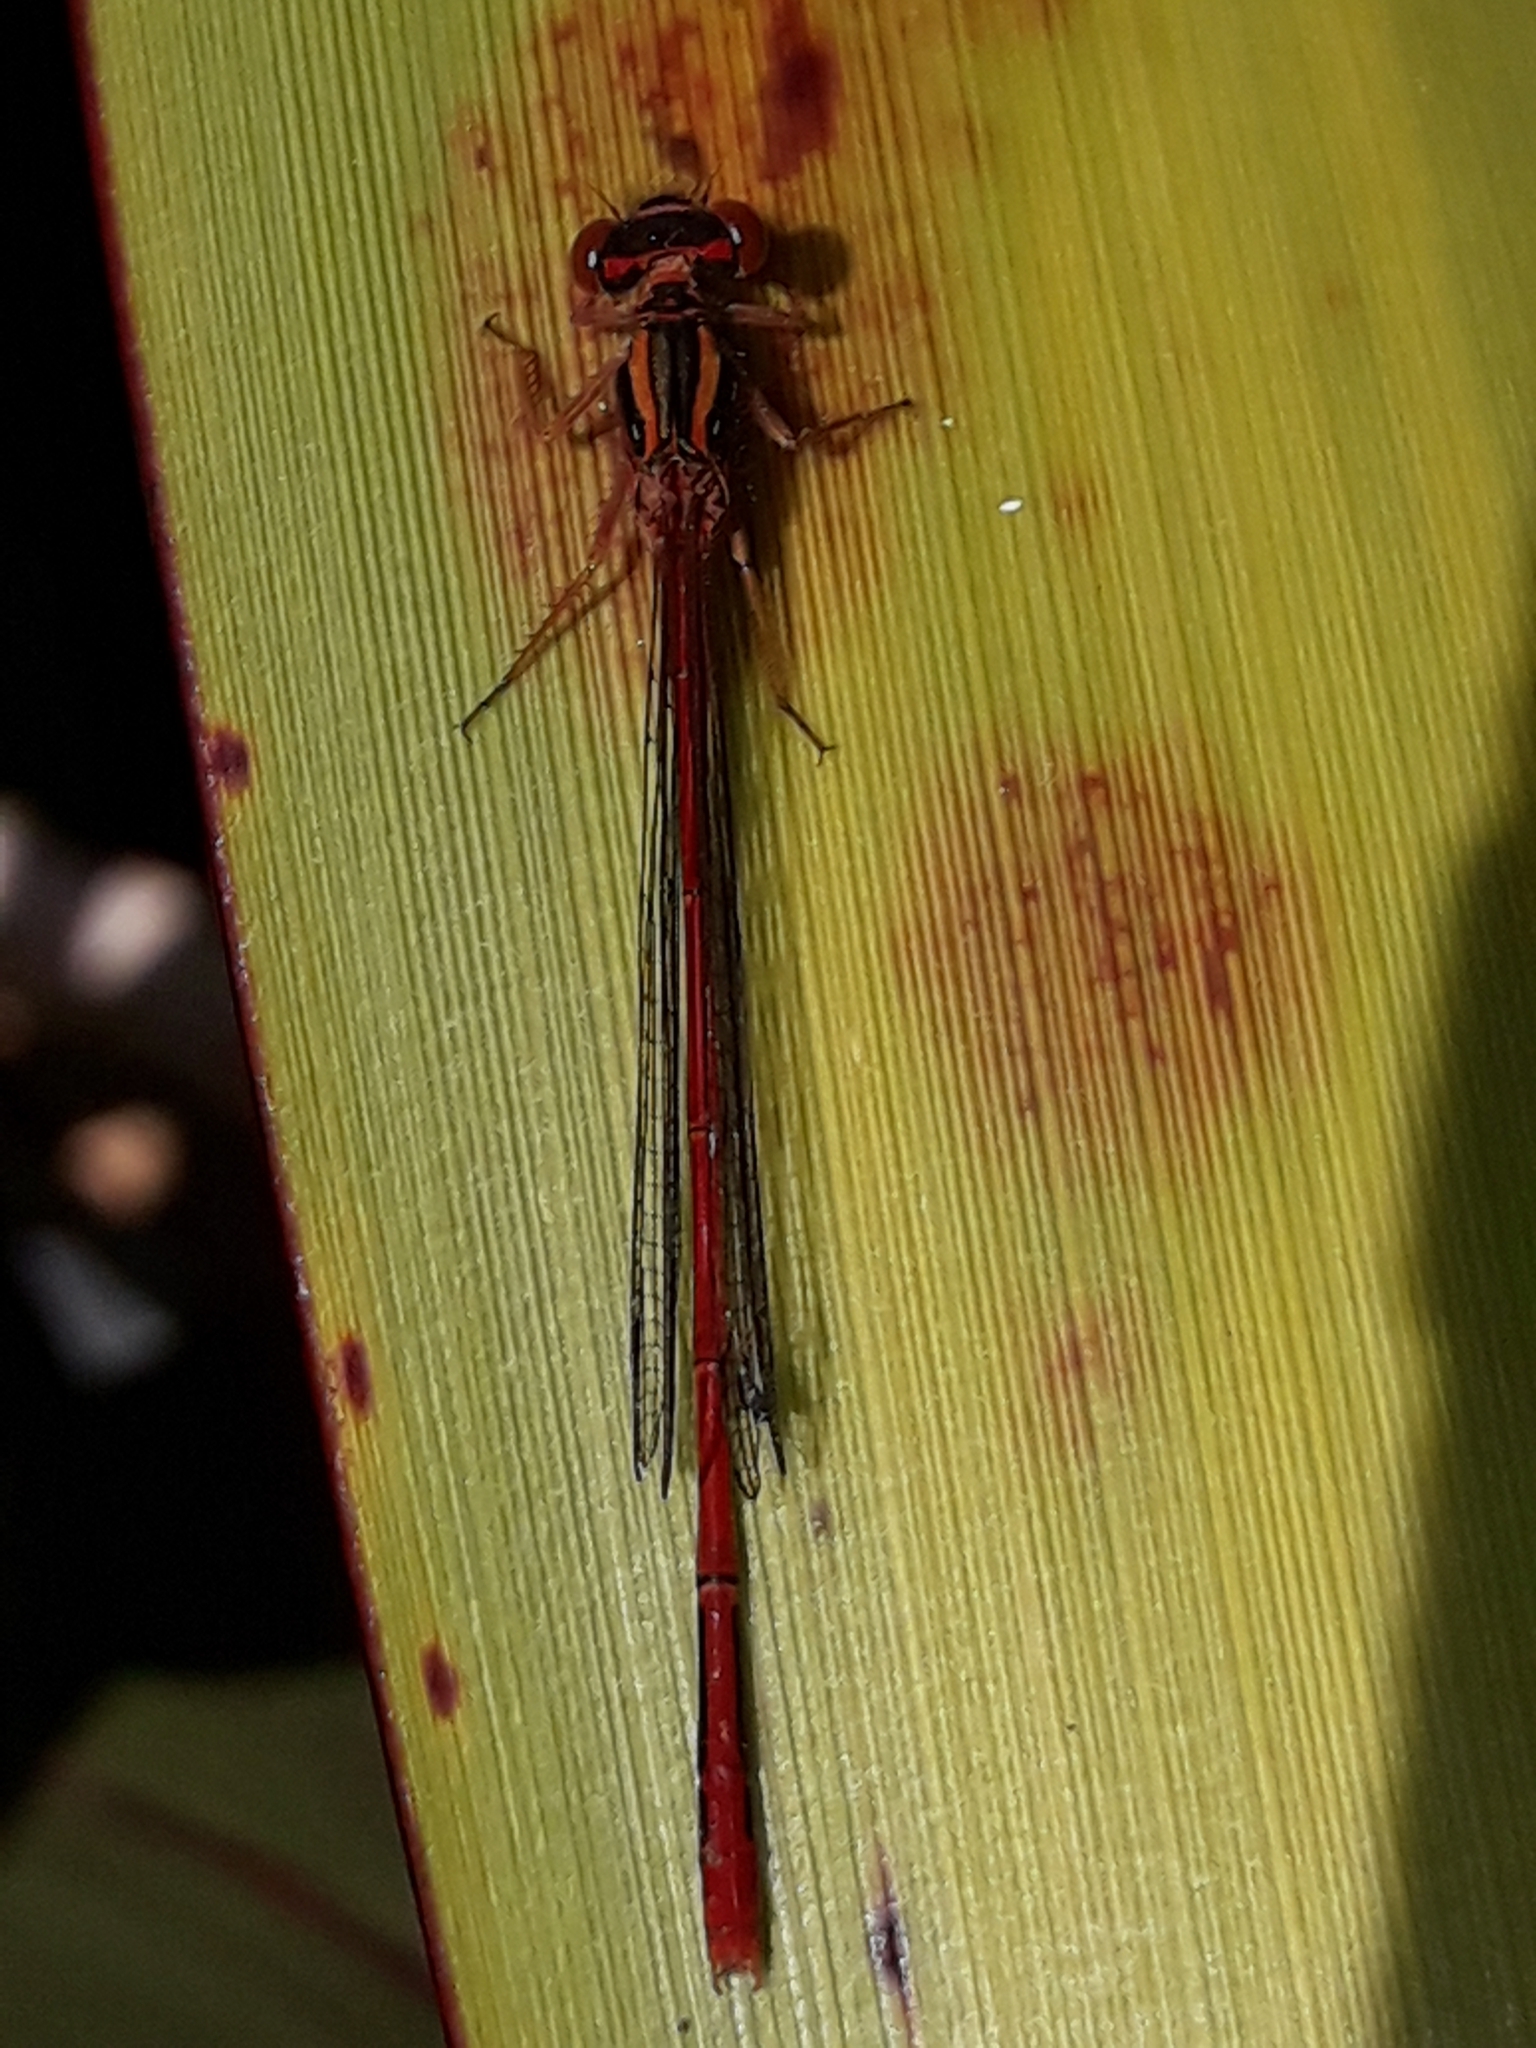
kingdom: Animalia
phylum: Arthropoda
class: Insecta
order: Odonata
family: Coenagrionidae
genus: Xanthocnemis
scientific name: Xanthocnemis zealandica
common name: Common redcoat damselfly
